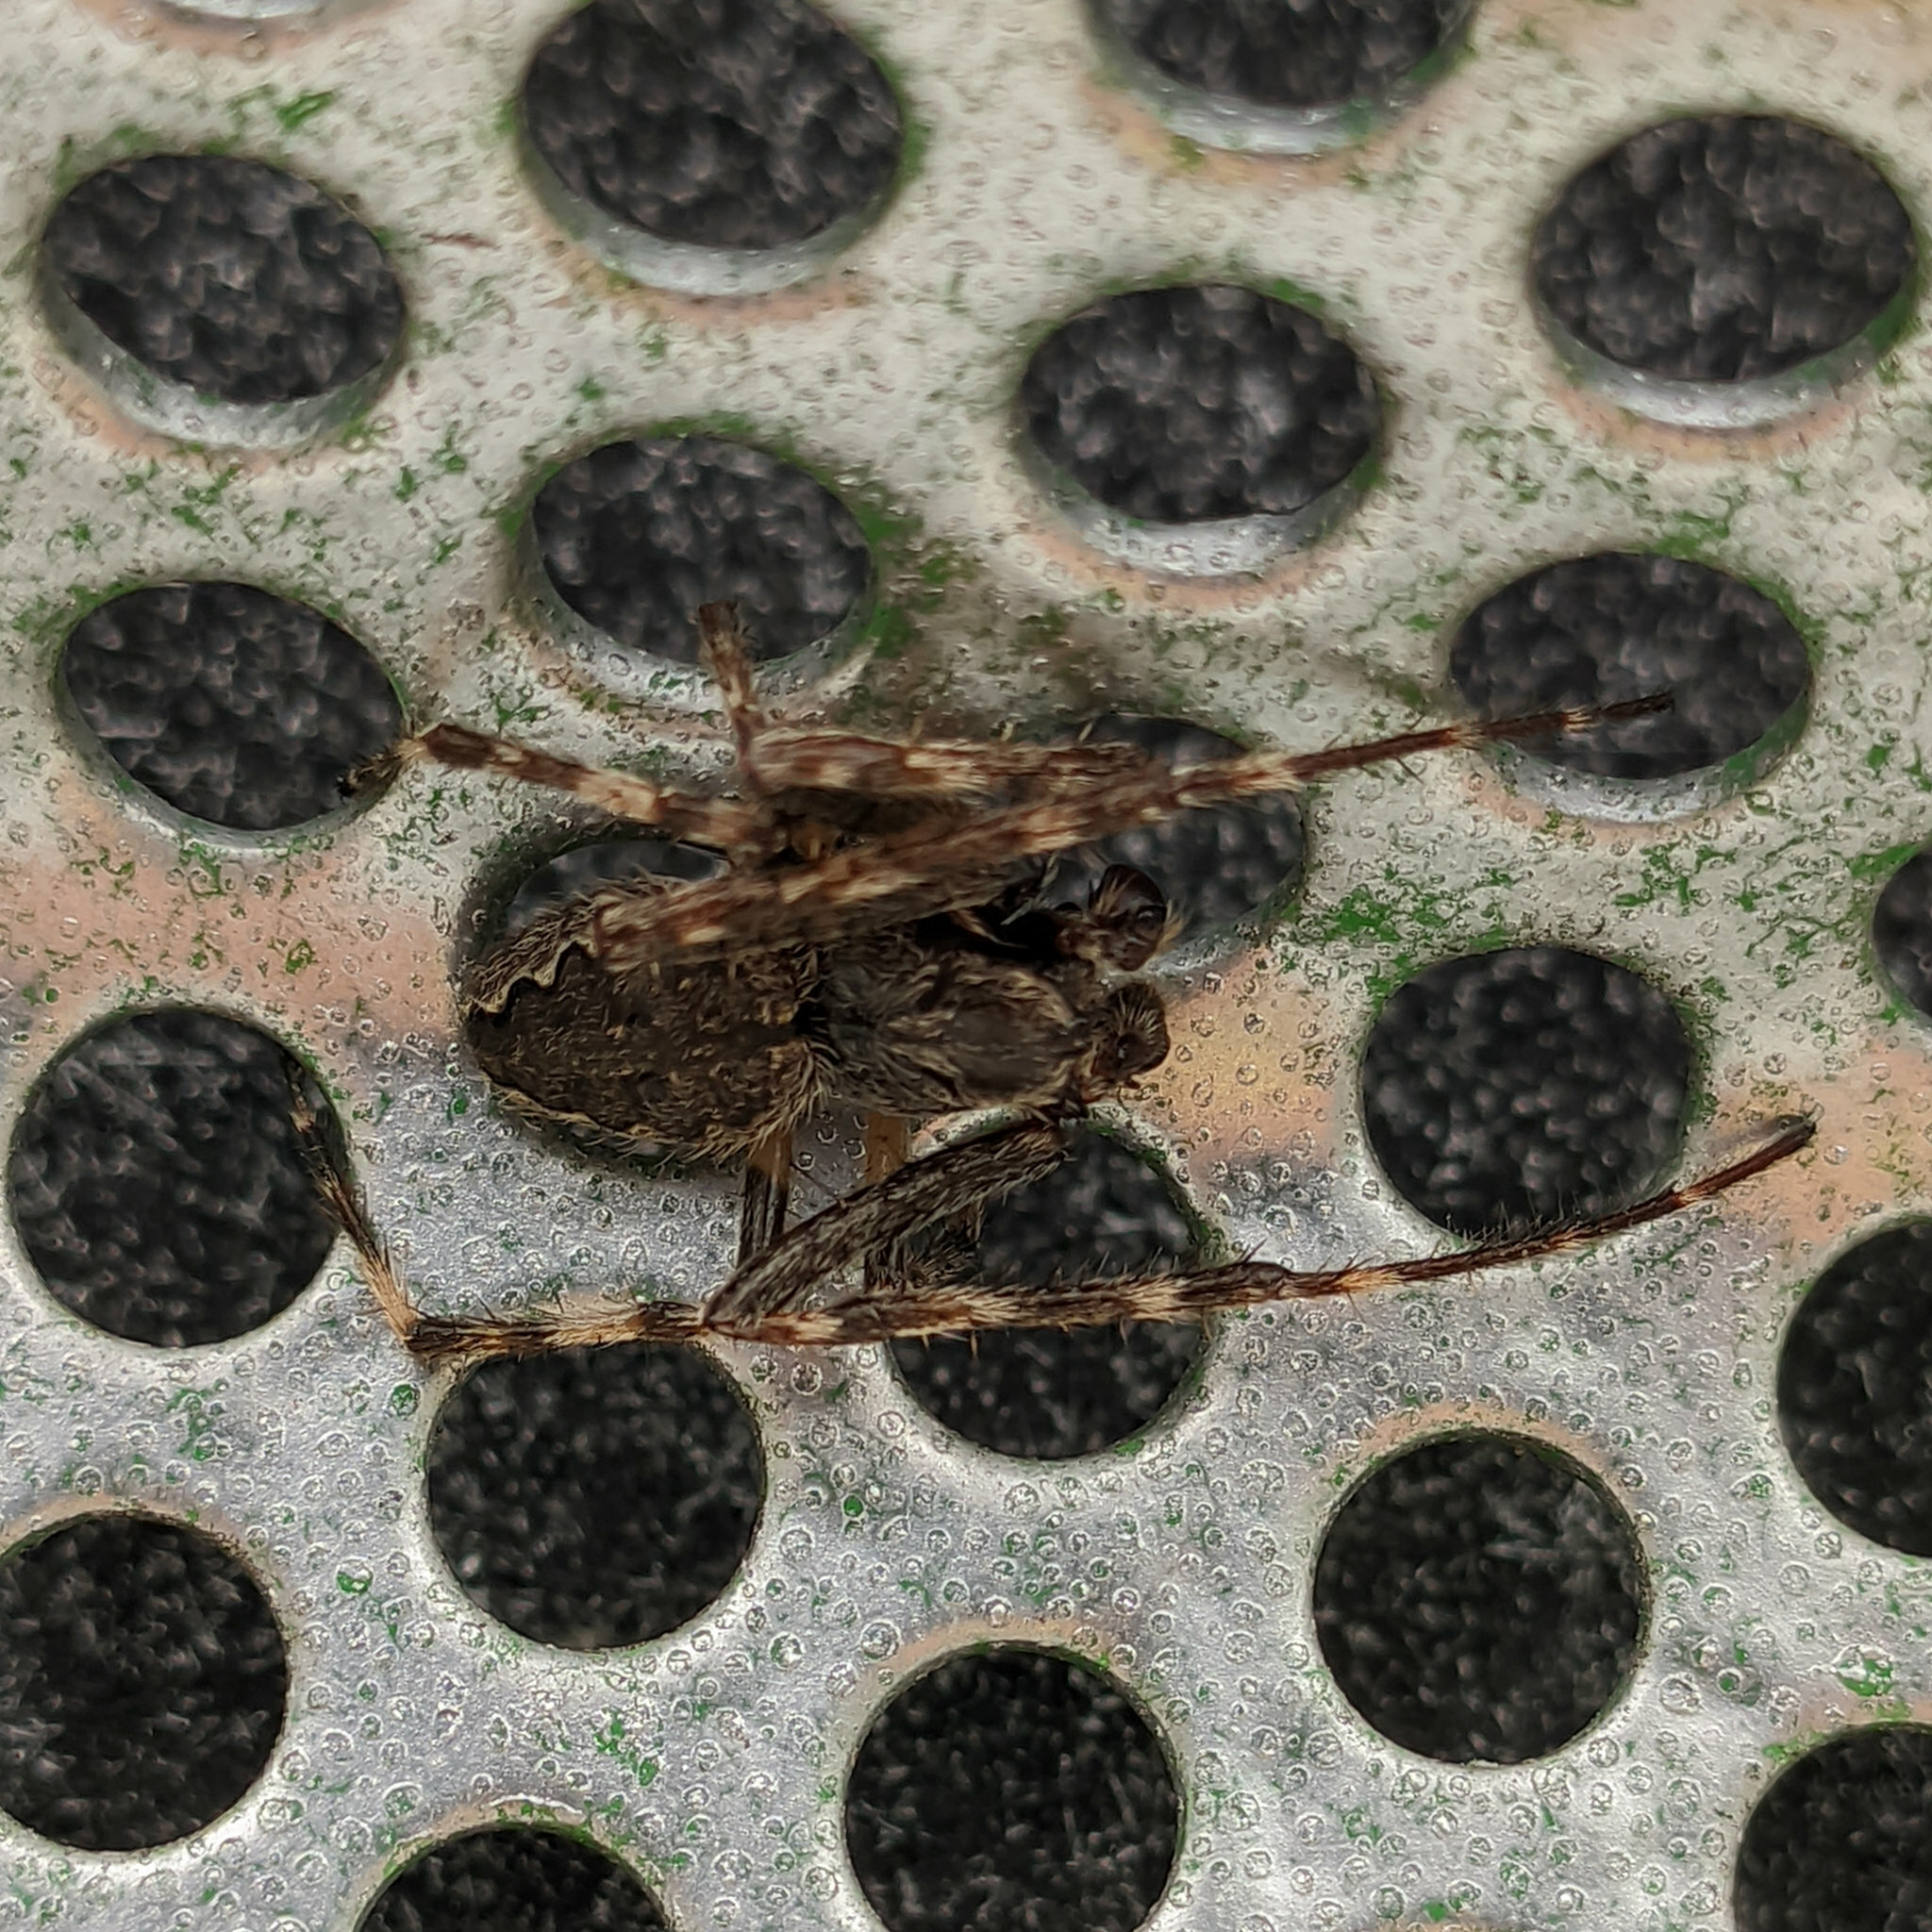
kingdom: Animalia
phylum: Arthropoda
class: Arachnida
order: Araneae
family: Araneidae
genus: Nuctenea
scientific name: Nuctenea umbratica
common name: Toad spider
